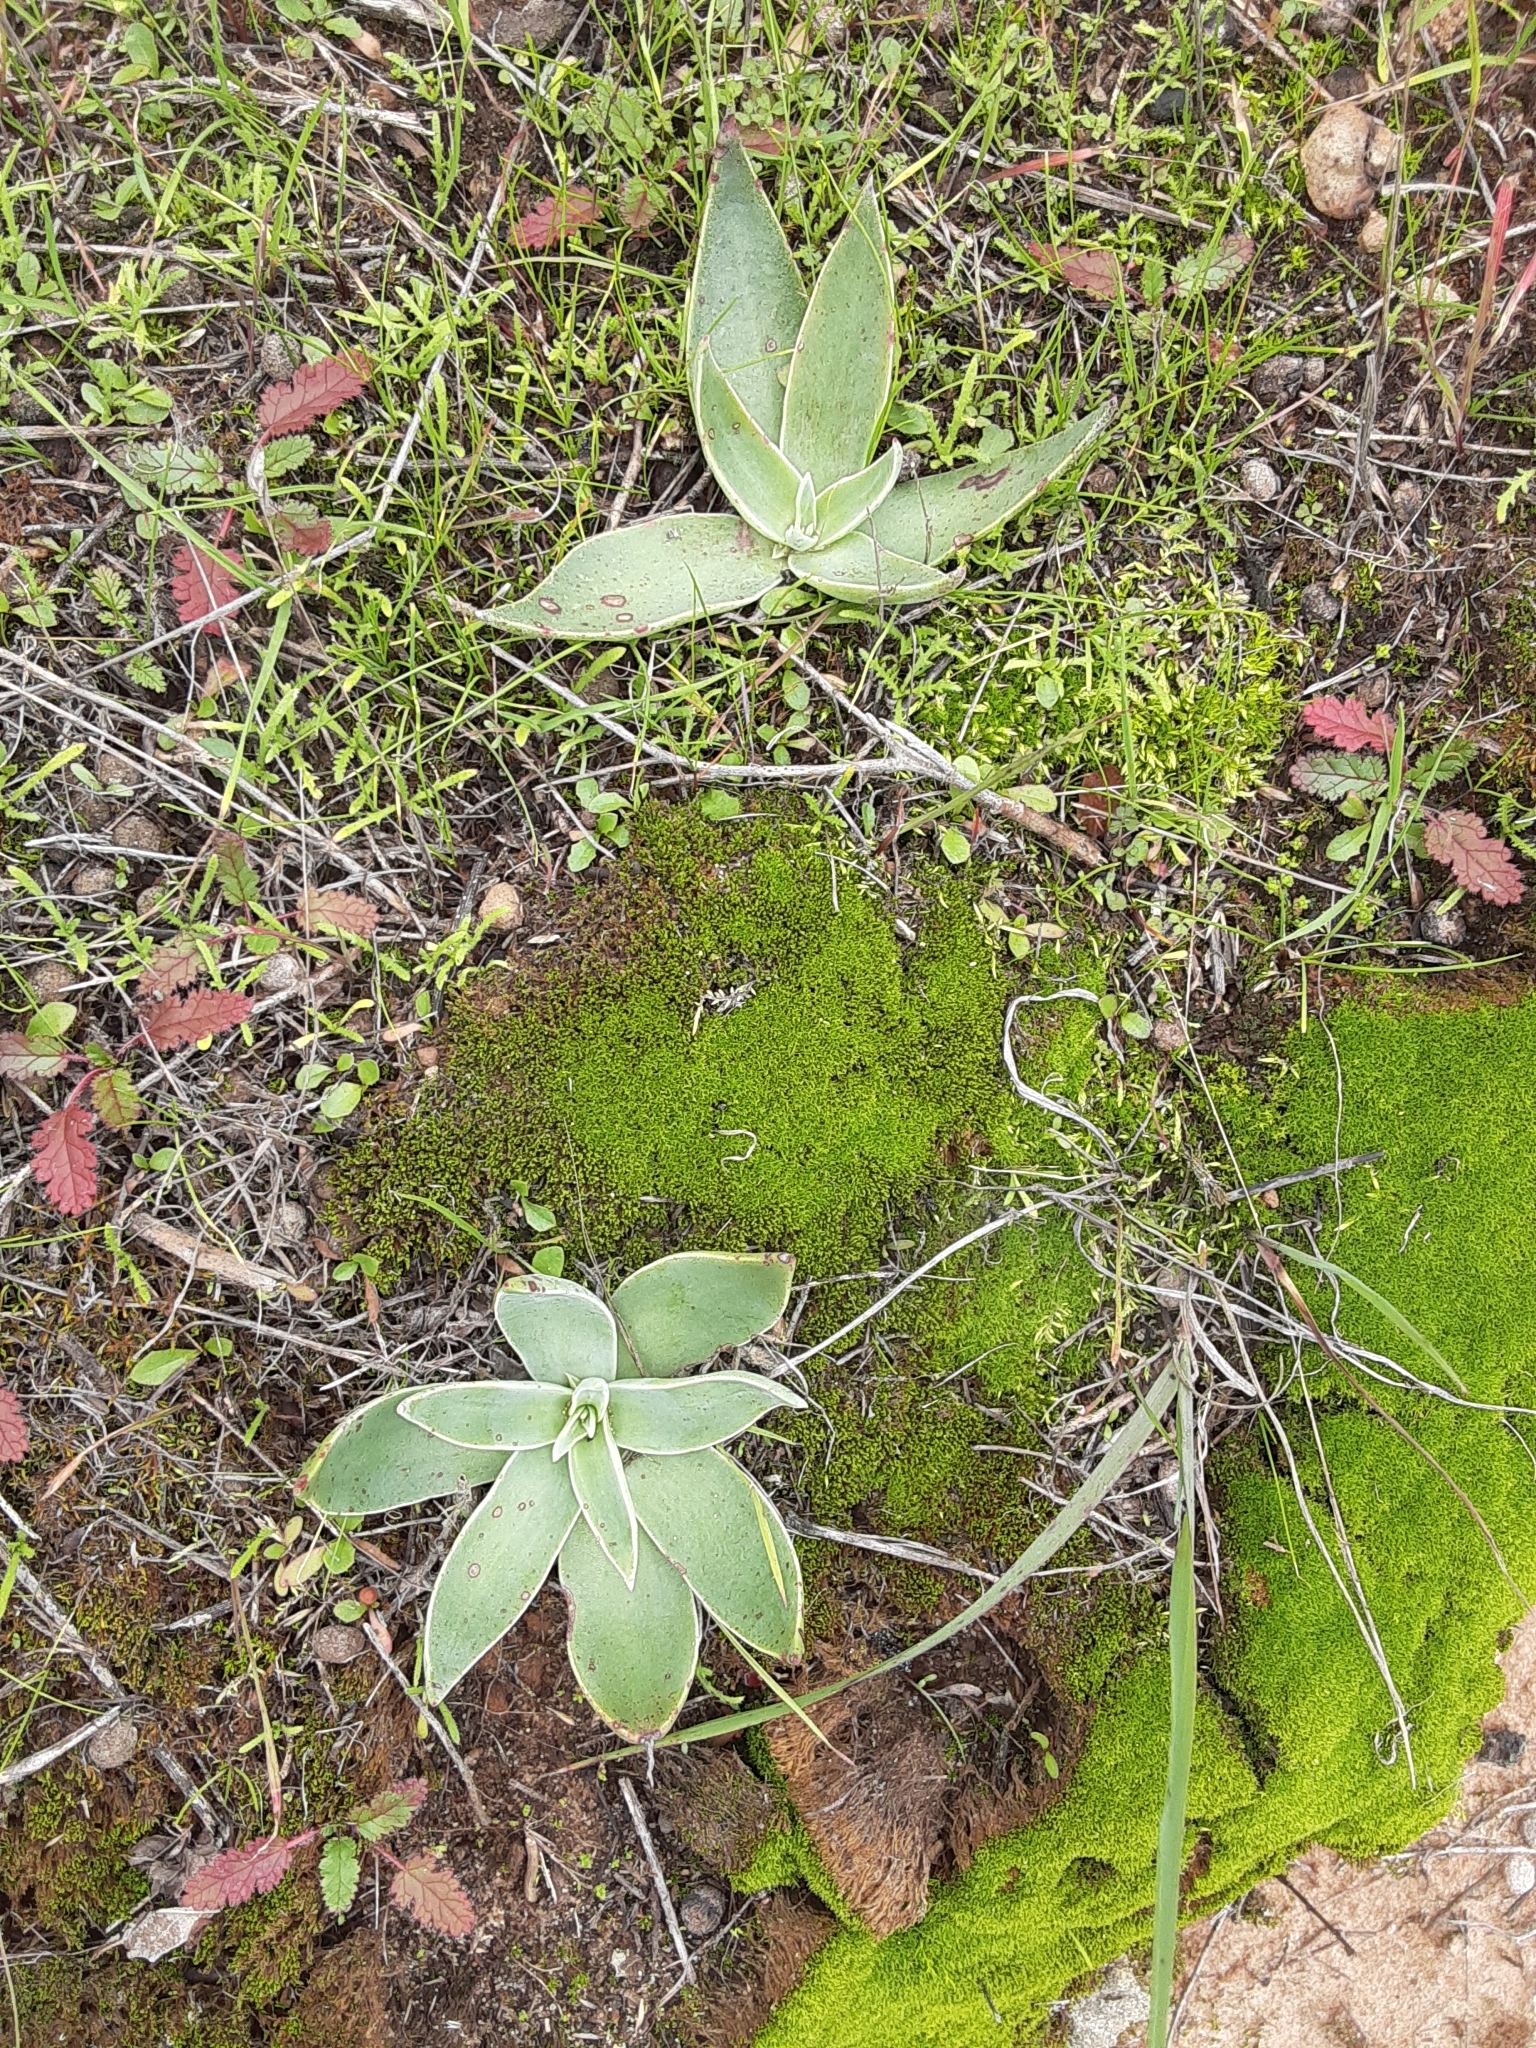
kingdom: Plantae
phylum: Tracheophyta
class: Magnoliopsida
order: Saxifragales
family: Crassulaceae
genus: Dudleya
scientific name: Dudleya pulverulenta
